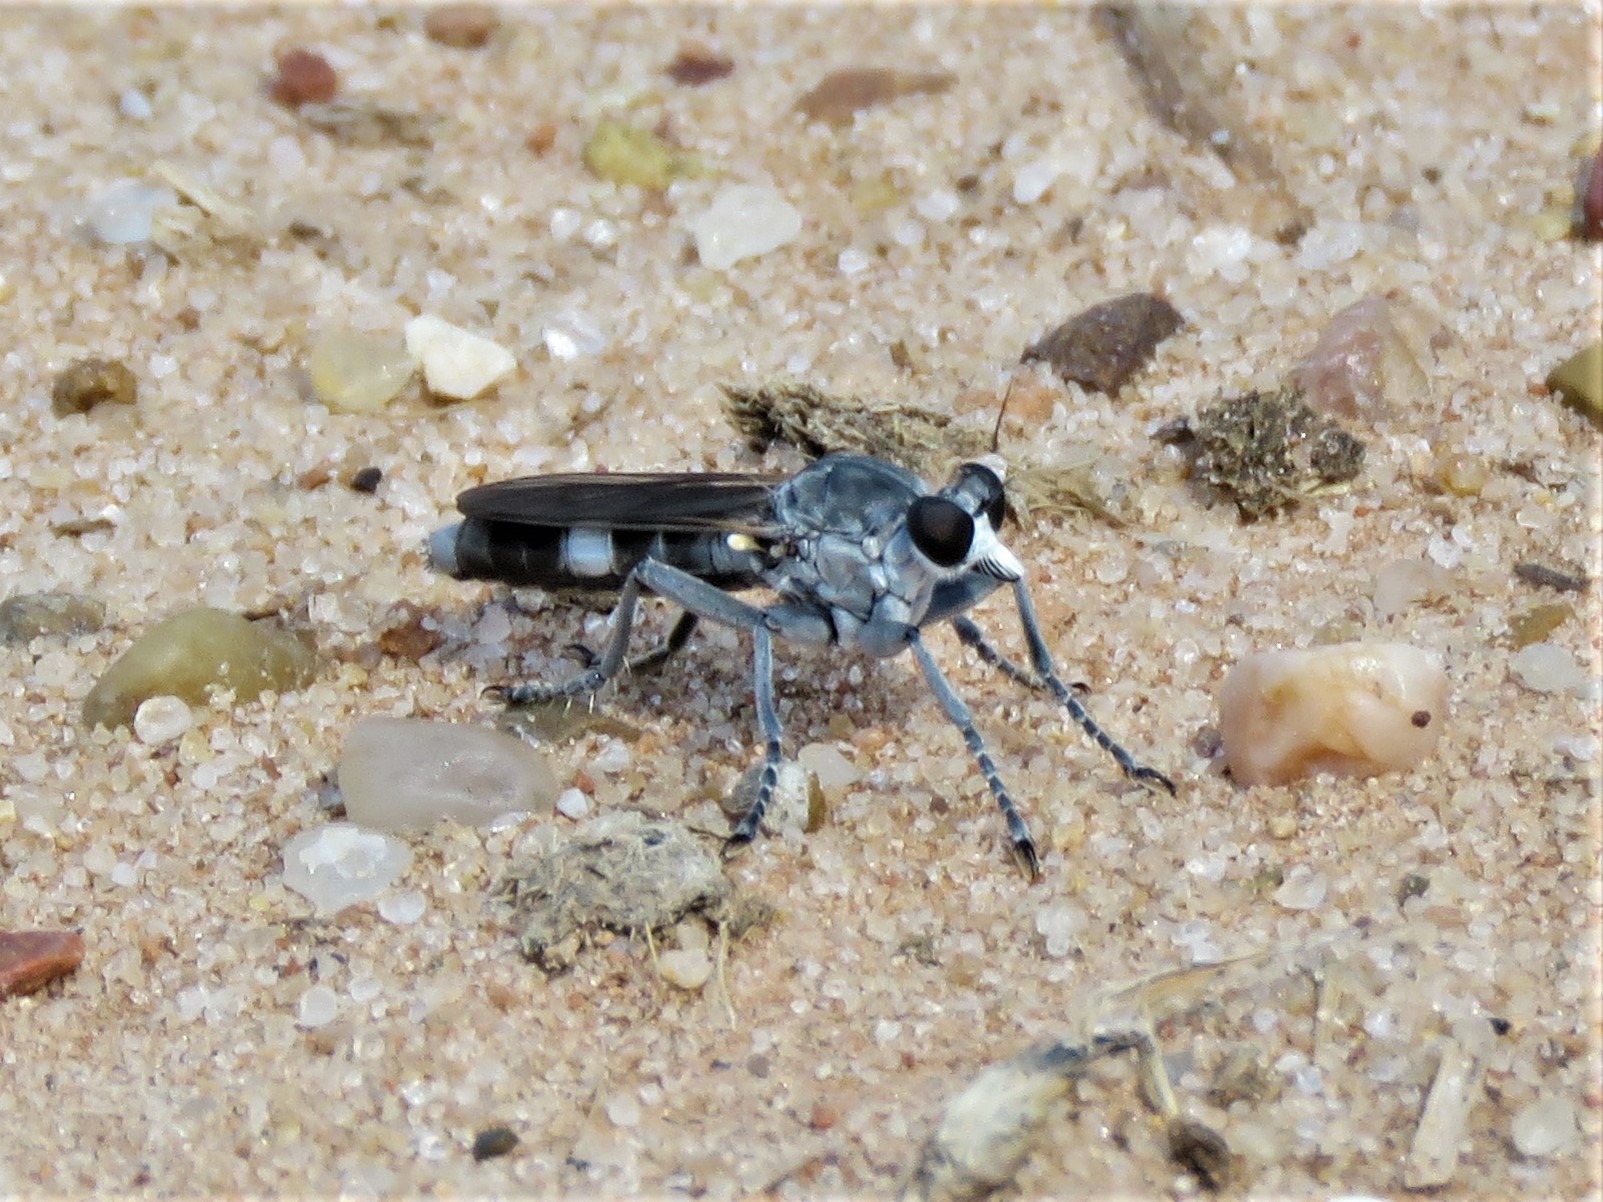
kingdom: Animalia
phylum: Arthropoda
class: Insecta
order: Diptera
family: Asilidae
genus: Stichopogon
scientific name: Stichopogon trifasciatus
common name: Three-banded robber fly
